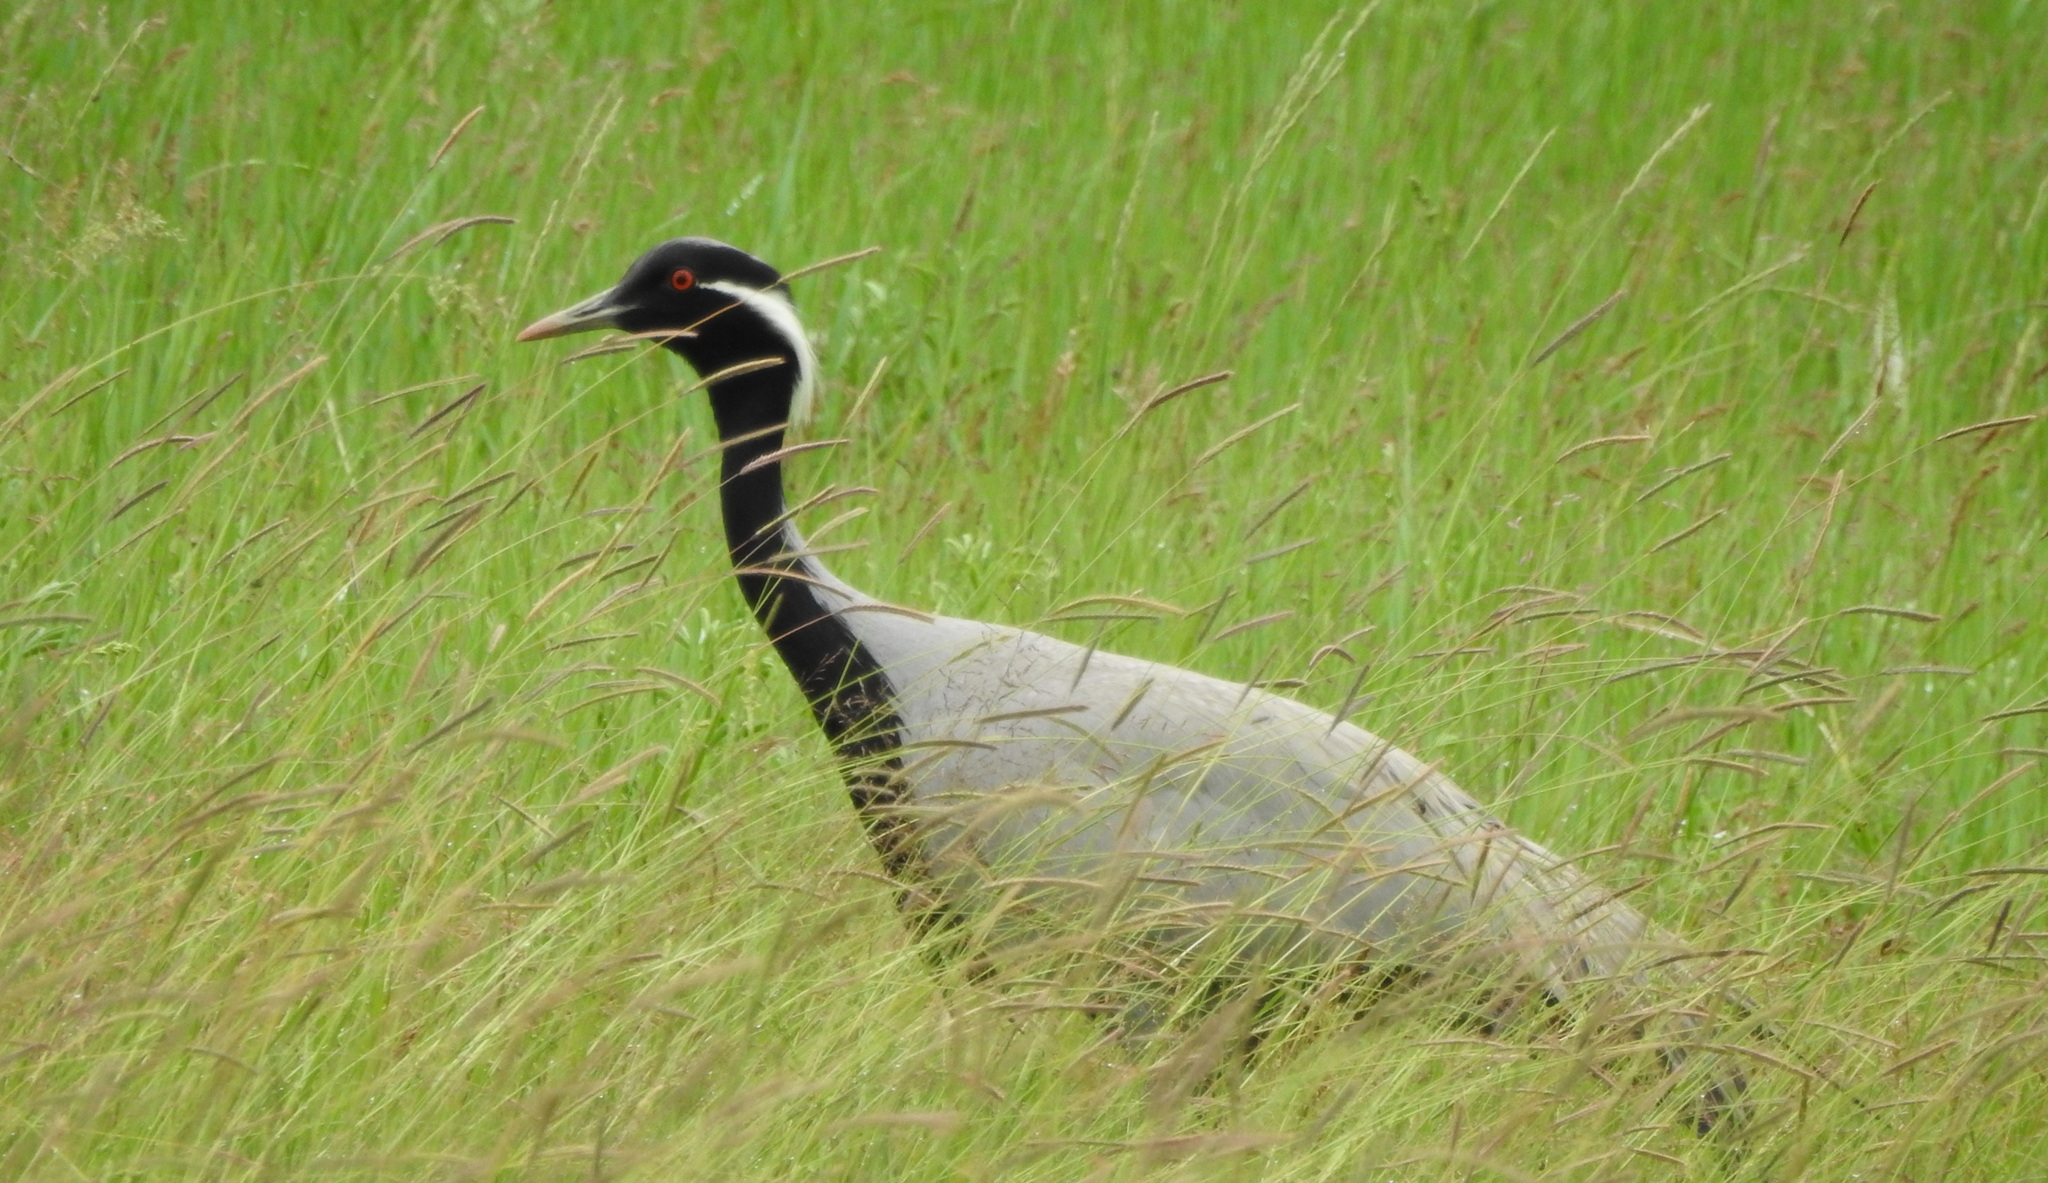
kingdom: Animalia
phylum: Chordata
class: Aves
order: Gruiformes
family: Gruidae
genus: Anthropoides
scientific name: Anthropoides virgo
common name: Demoiselle crane
